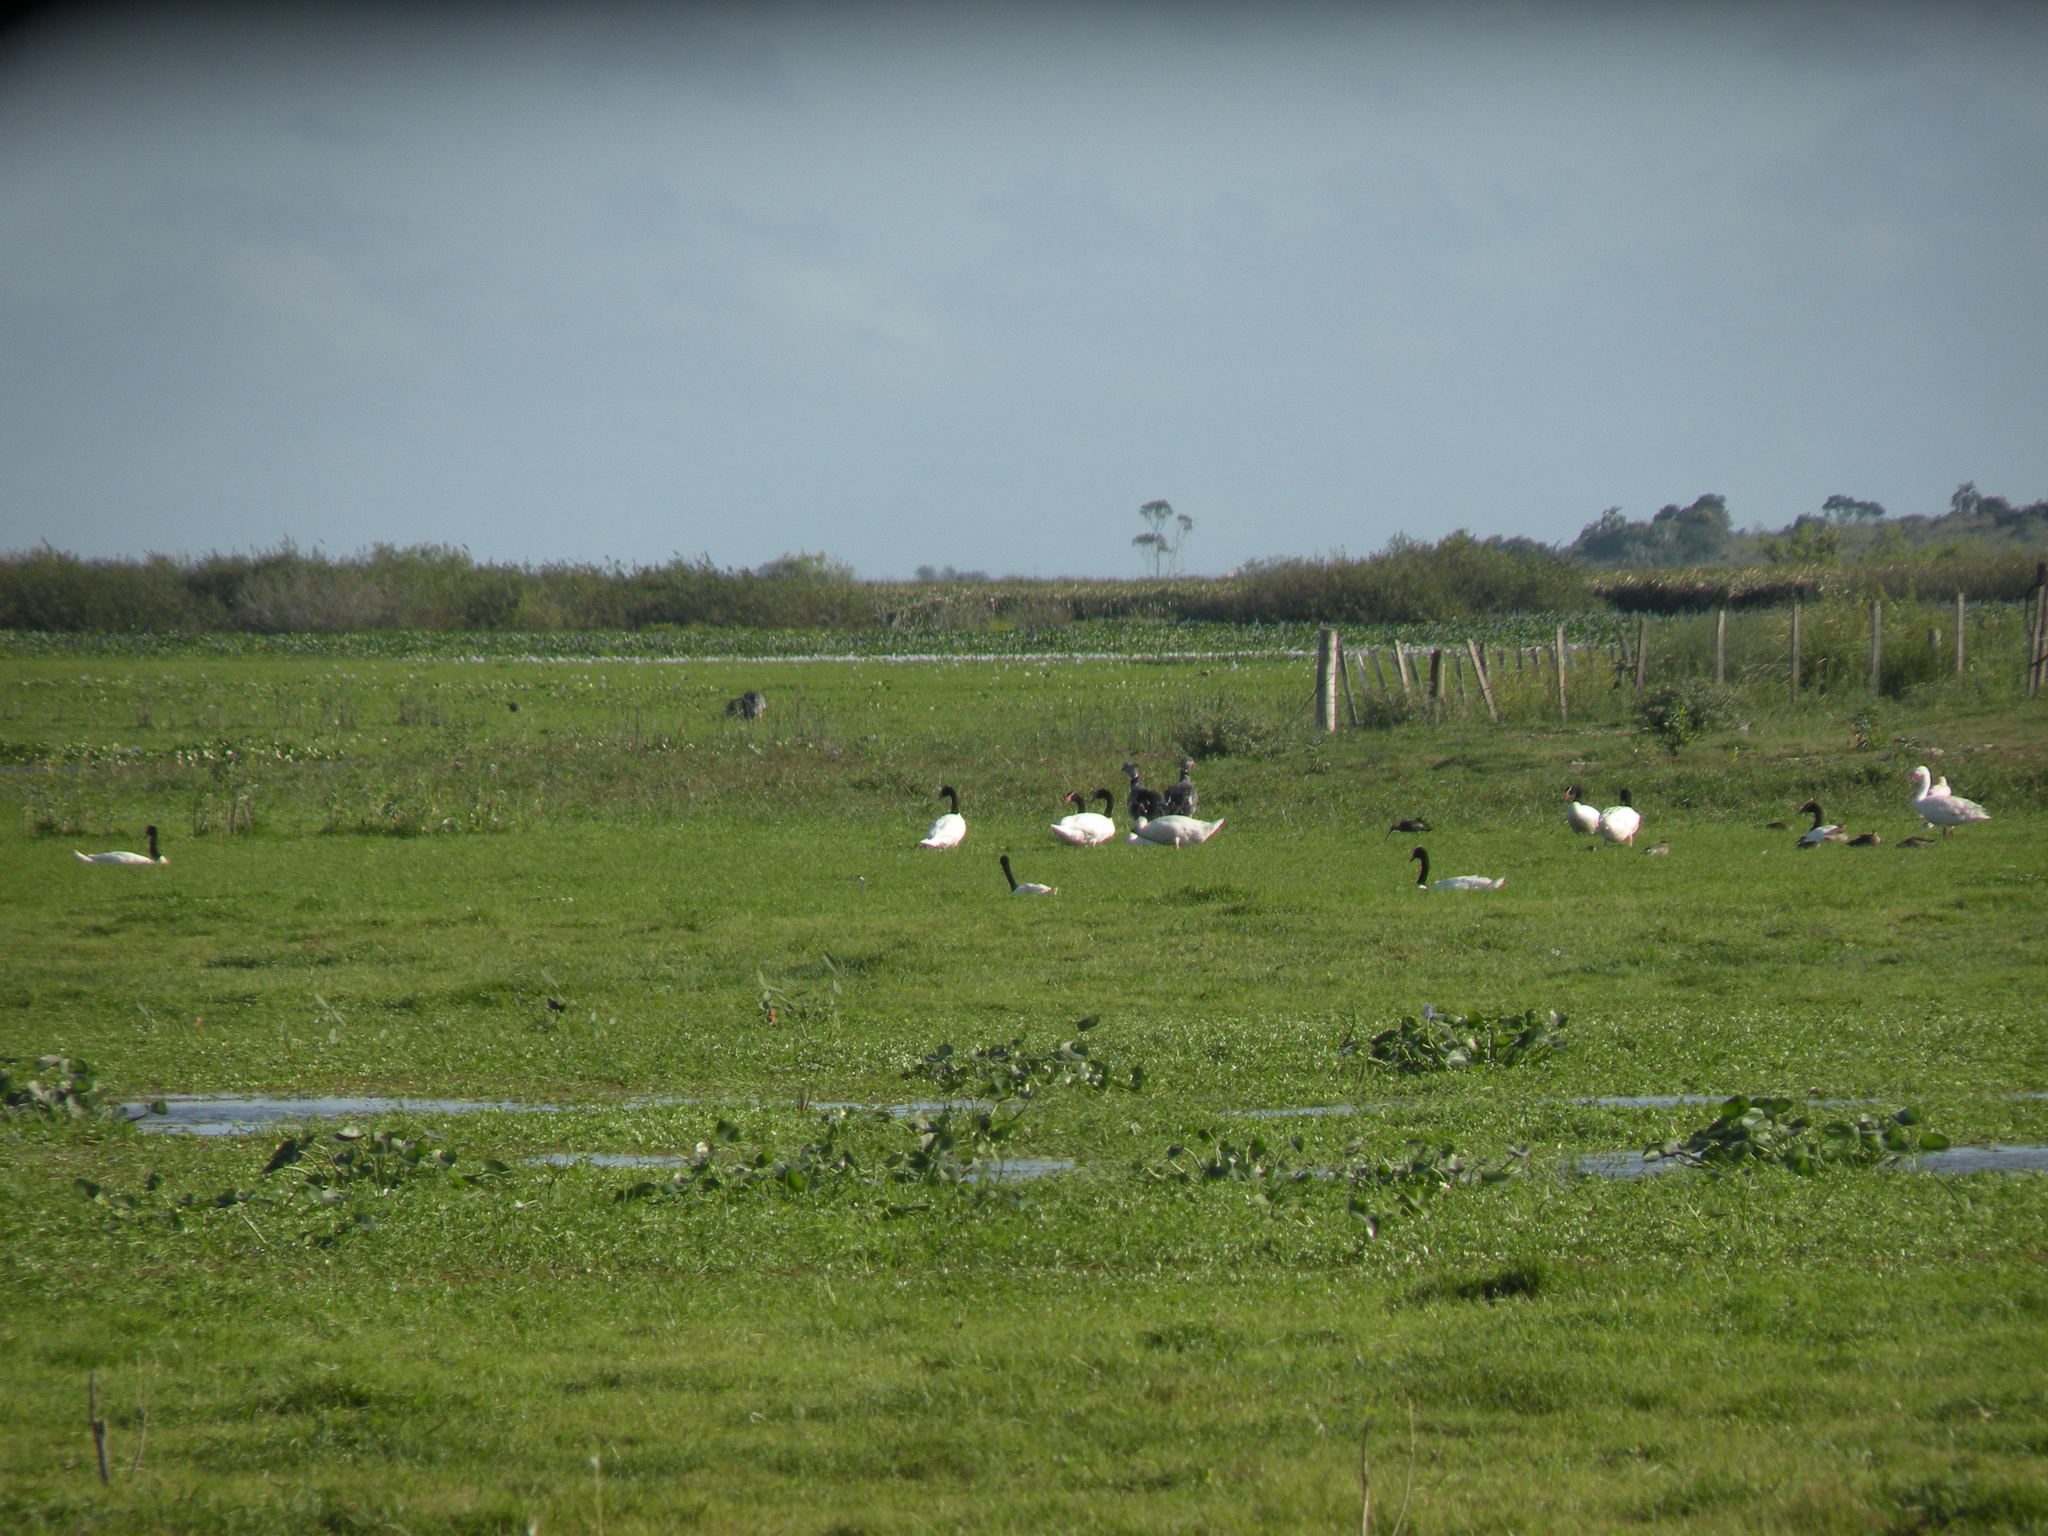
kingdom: Animalia
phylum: Chordata
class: Aves
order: Anseriformes
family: Anatidae
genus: Cygnus
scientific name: Cygnus melancoryphus
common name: Black-necked swan
